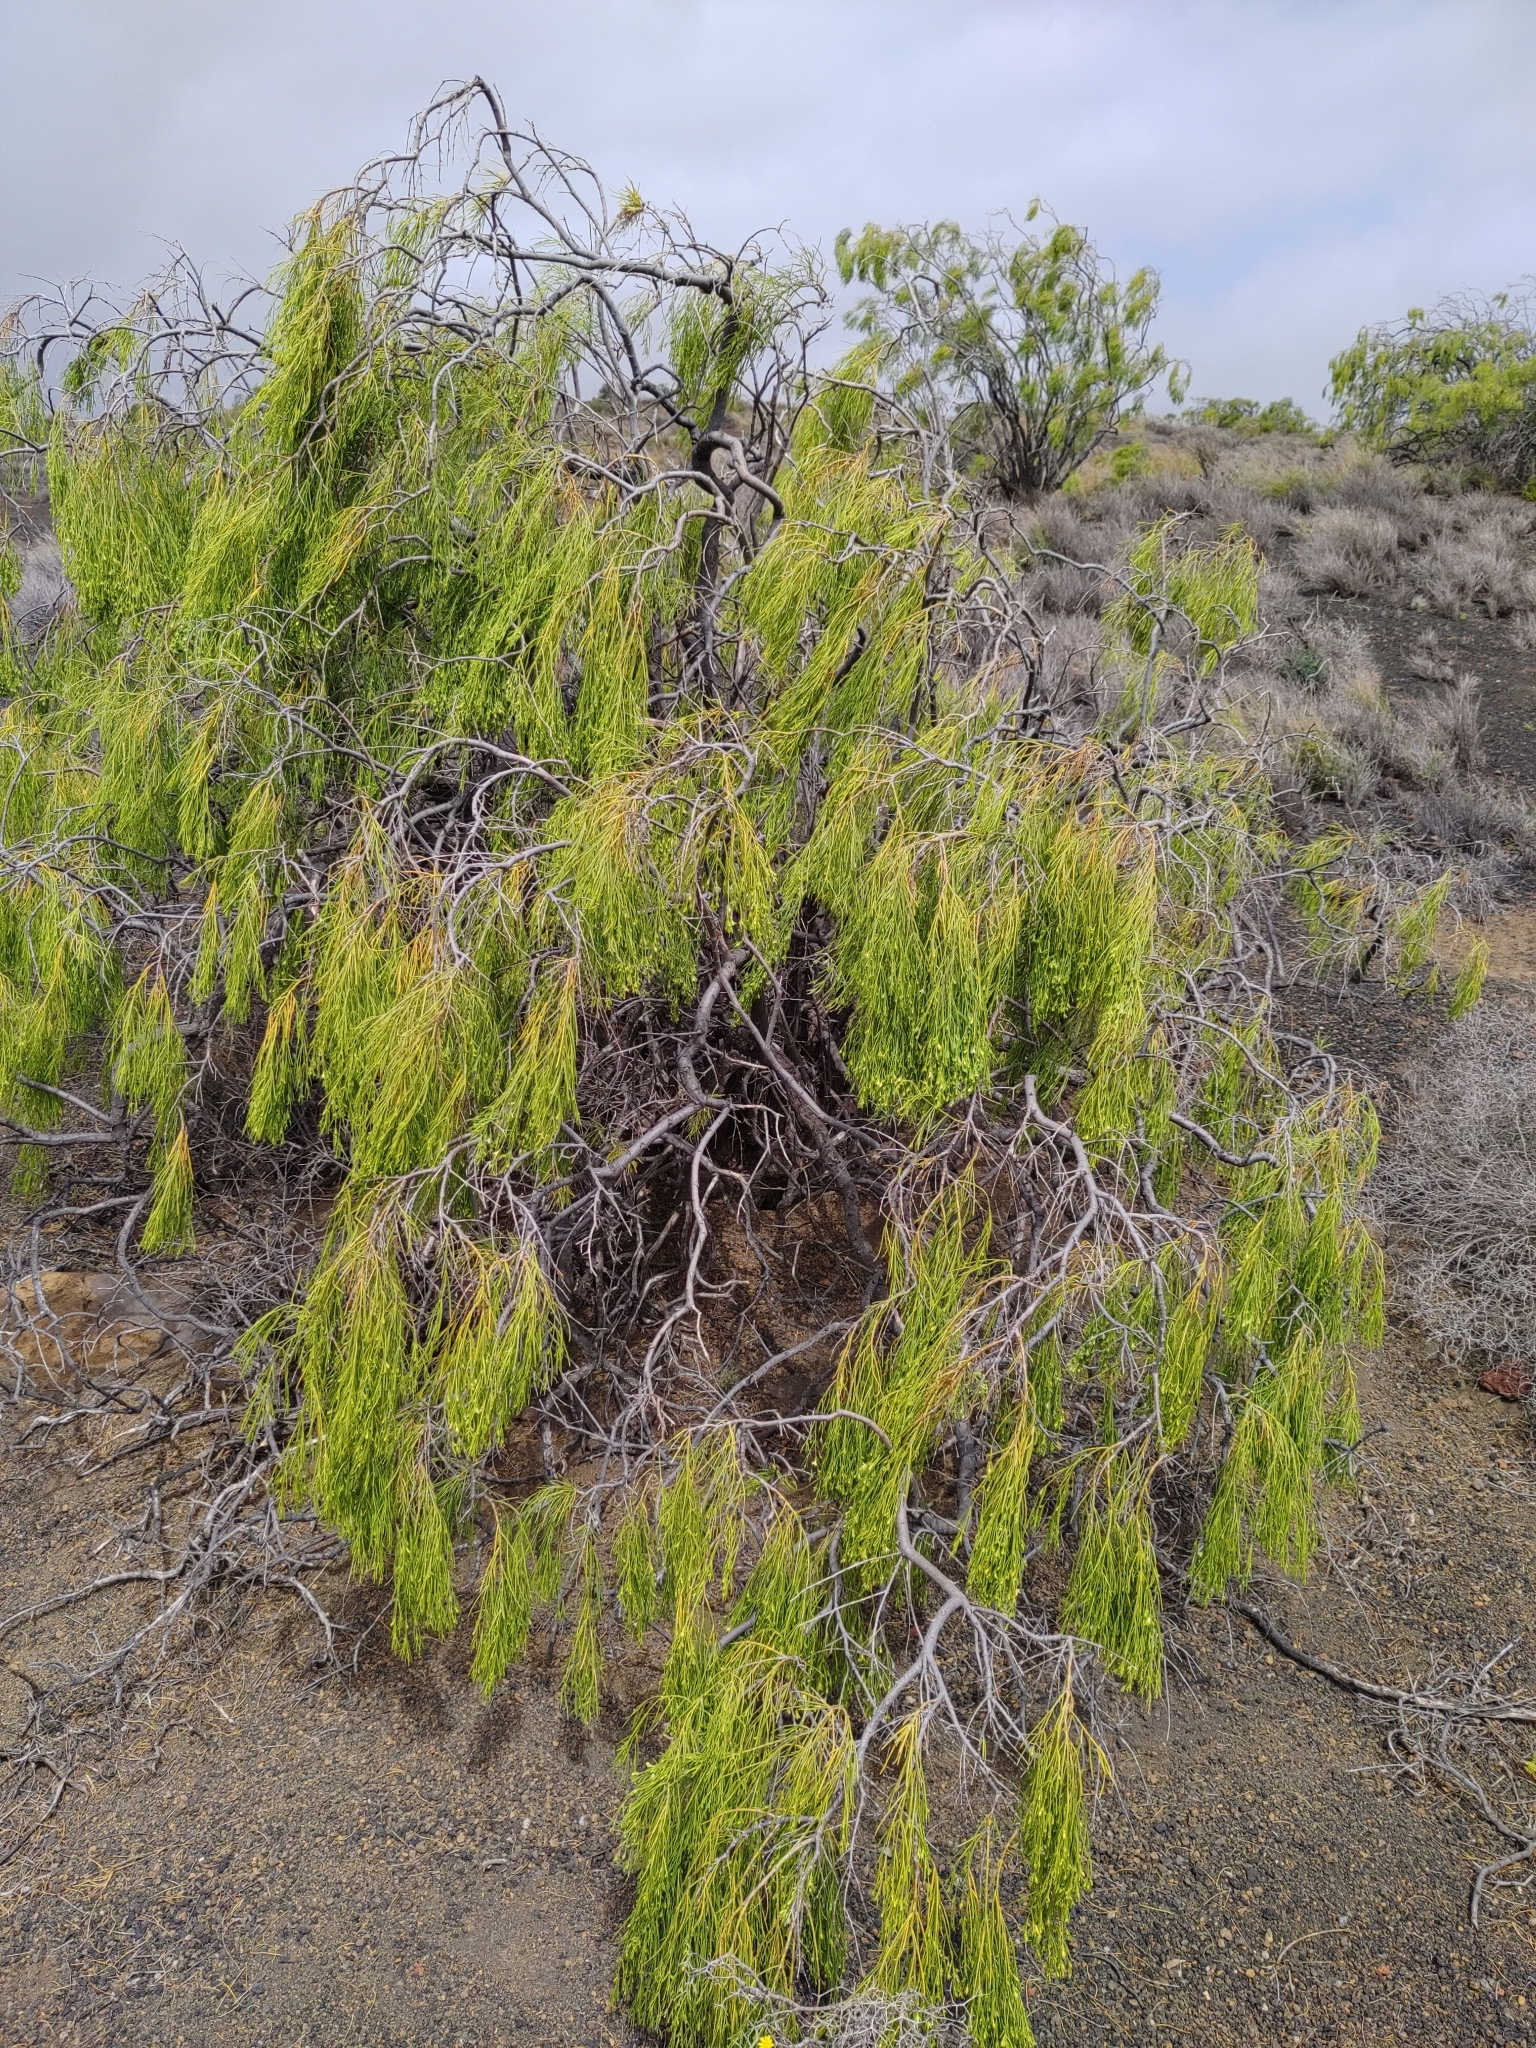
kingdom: Plantae
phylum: Tracheophyta
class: Magnoliopsida
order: Gentianales
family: Rubiaceae
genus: Plocama
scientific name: Plocama pendula
